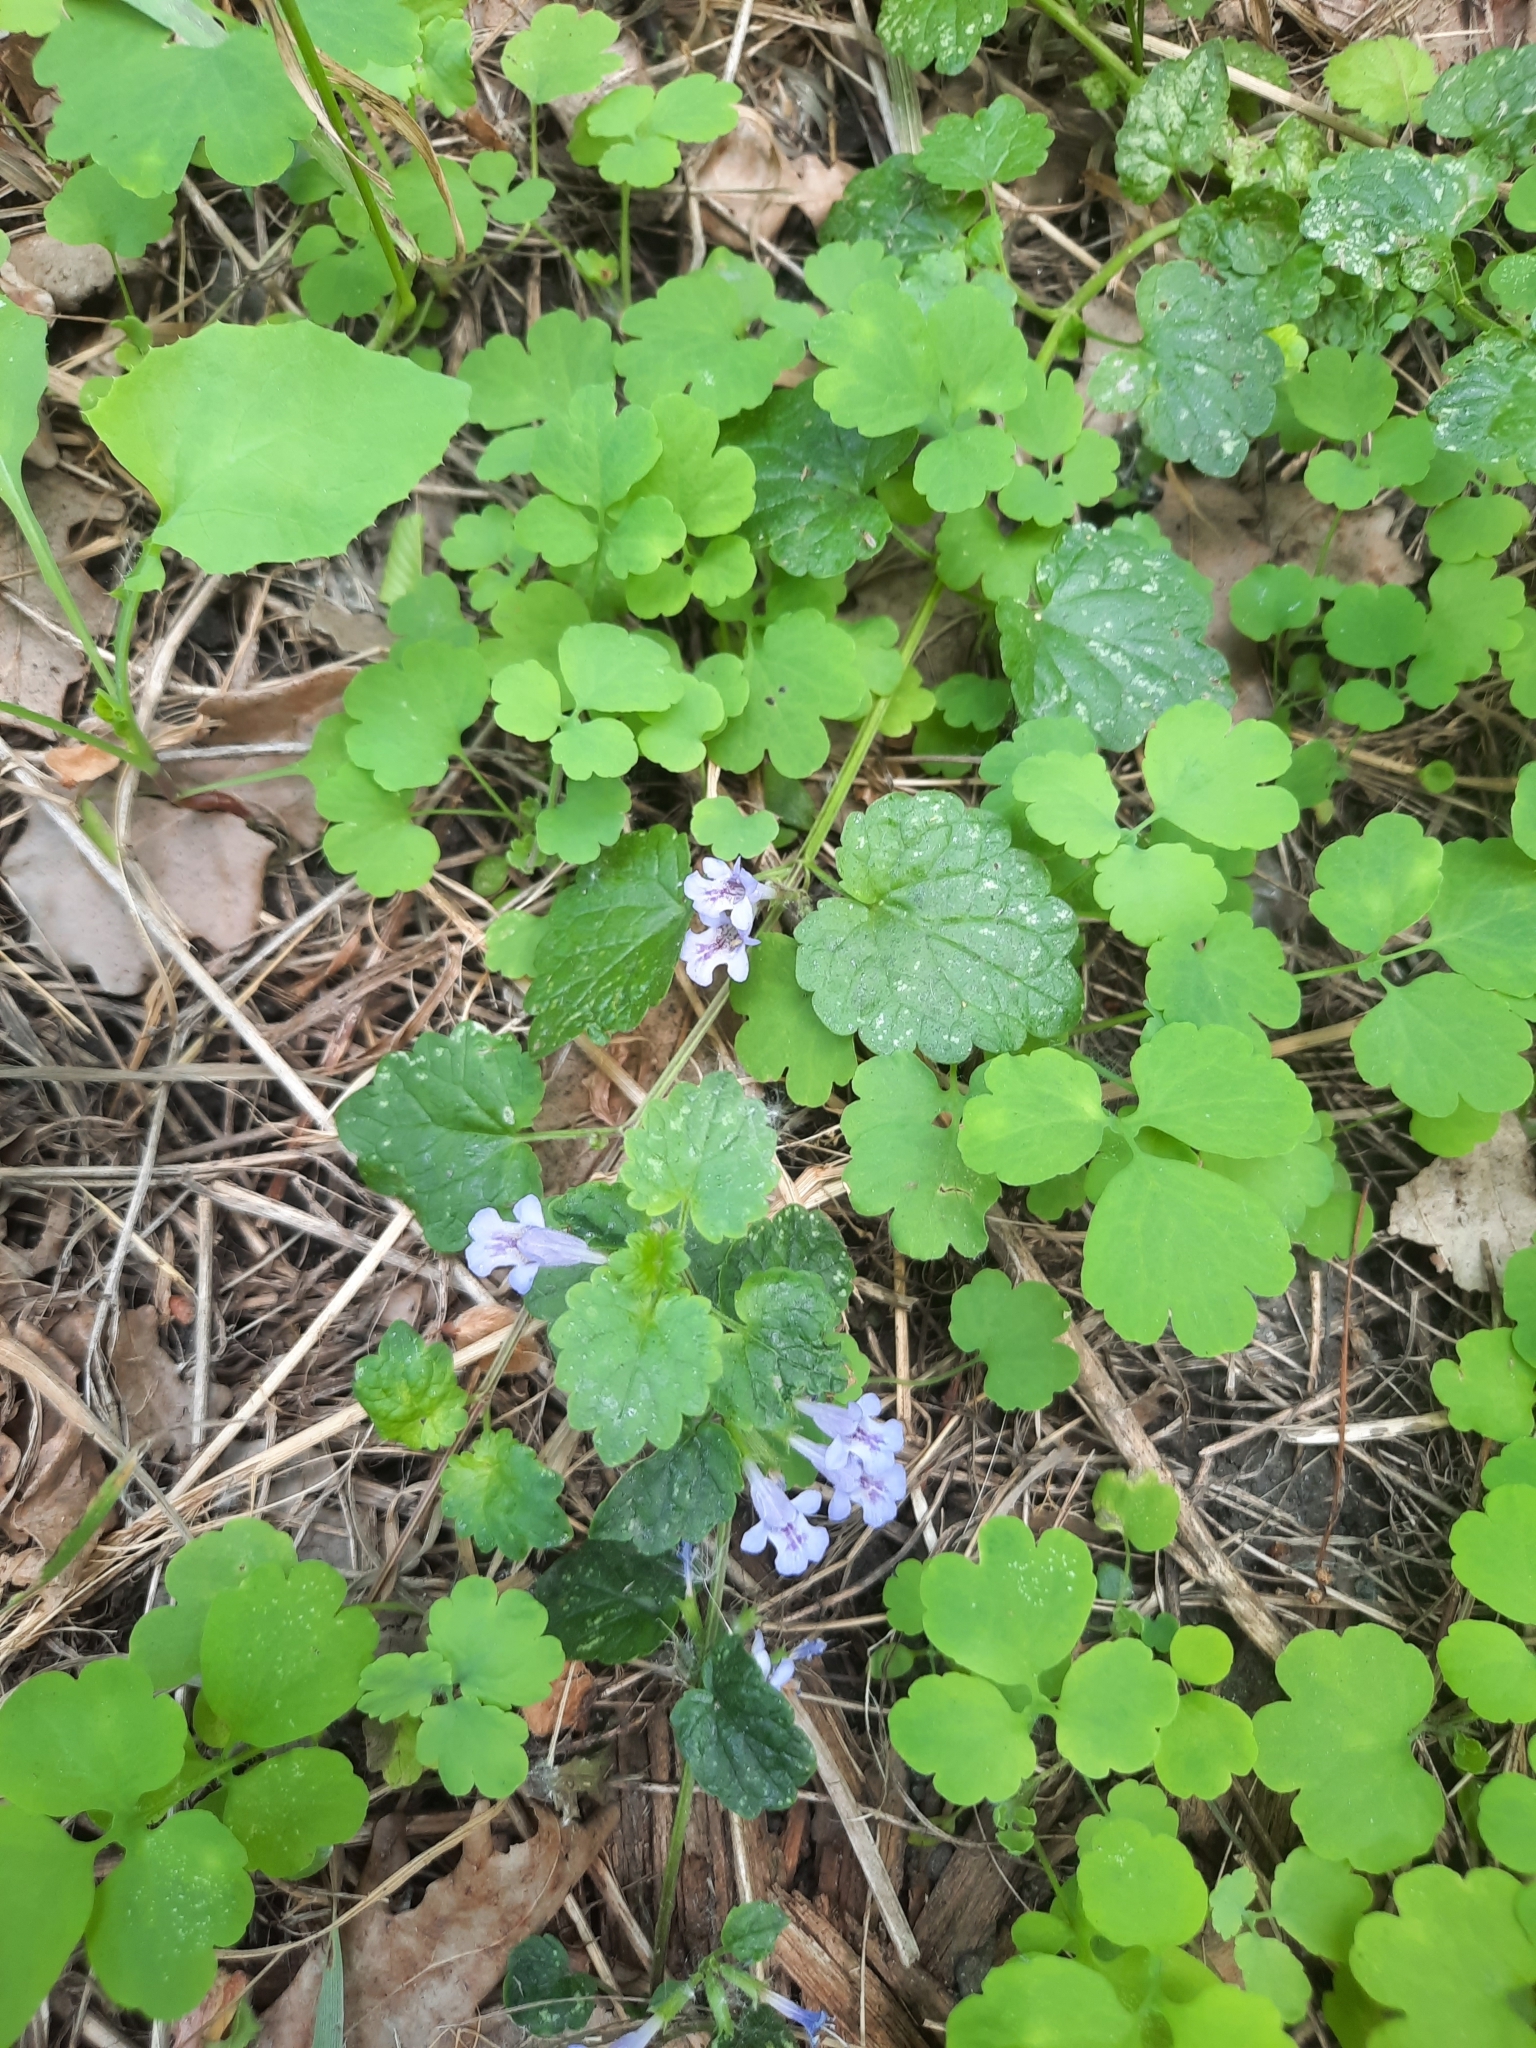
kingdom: Plantae
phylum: Tracheophyta
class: Magnoliopsida
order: Lamiales
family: Lamiaceae
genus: Glechoma
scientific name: Glechoma hederacea
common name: Ground ivy
